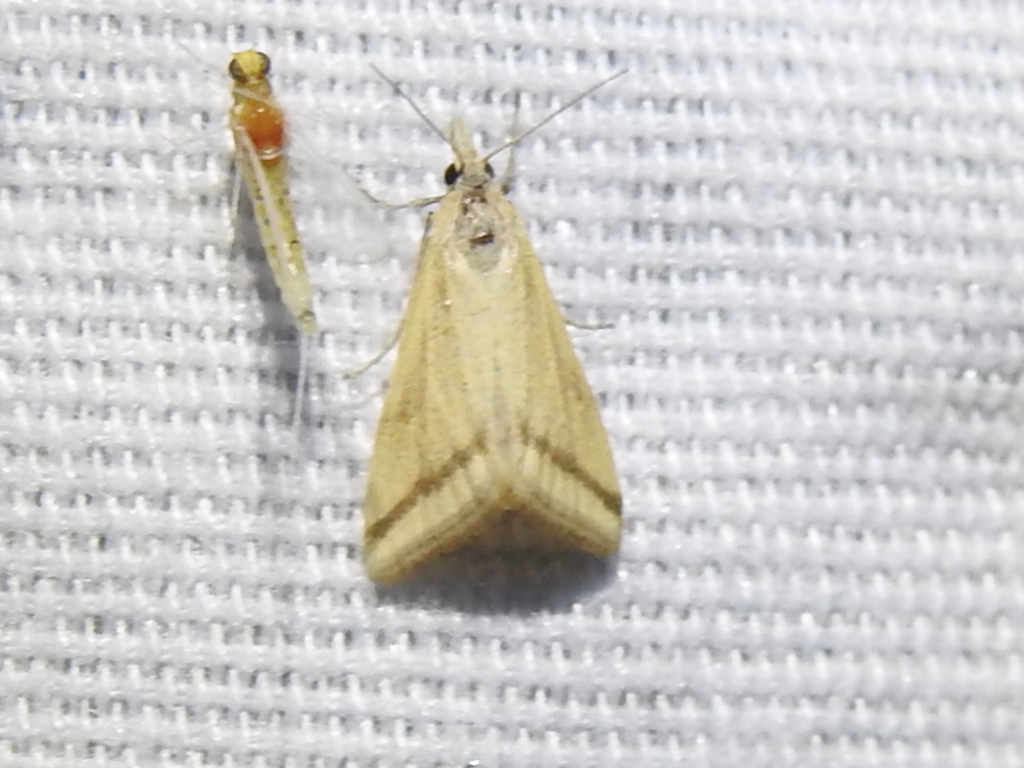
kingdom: Animalia
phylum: Arthropoda
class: Insecta
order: Lepidoptera
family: Crambidae
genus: Microtheoris
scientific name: Microtheoris vibicalis
